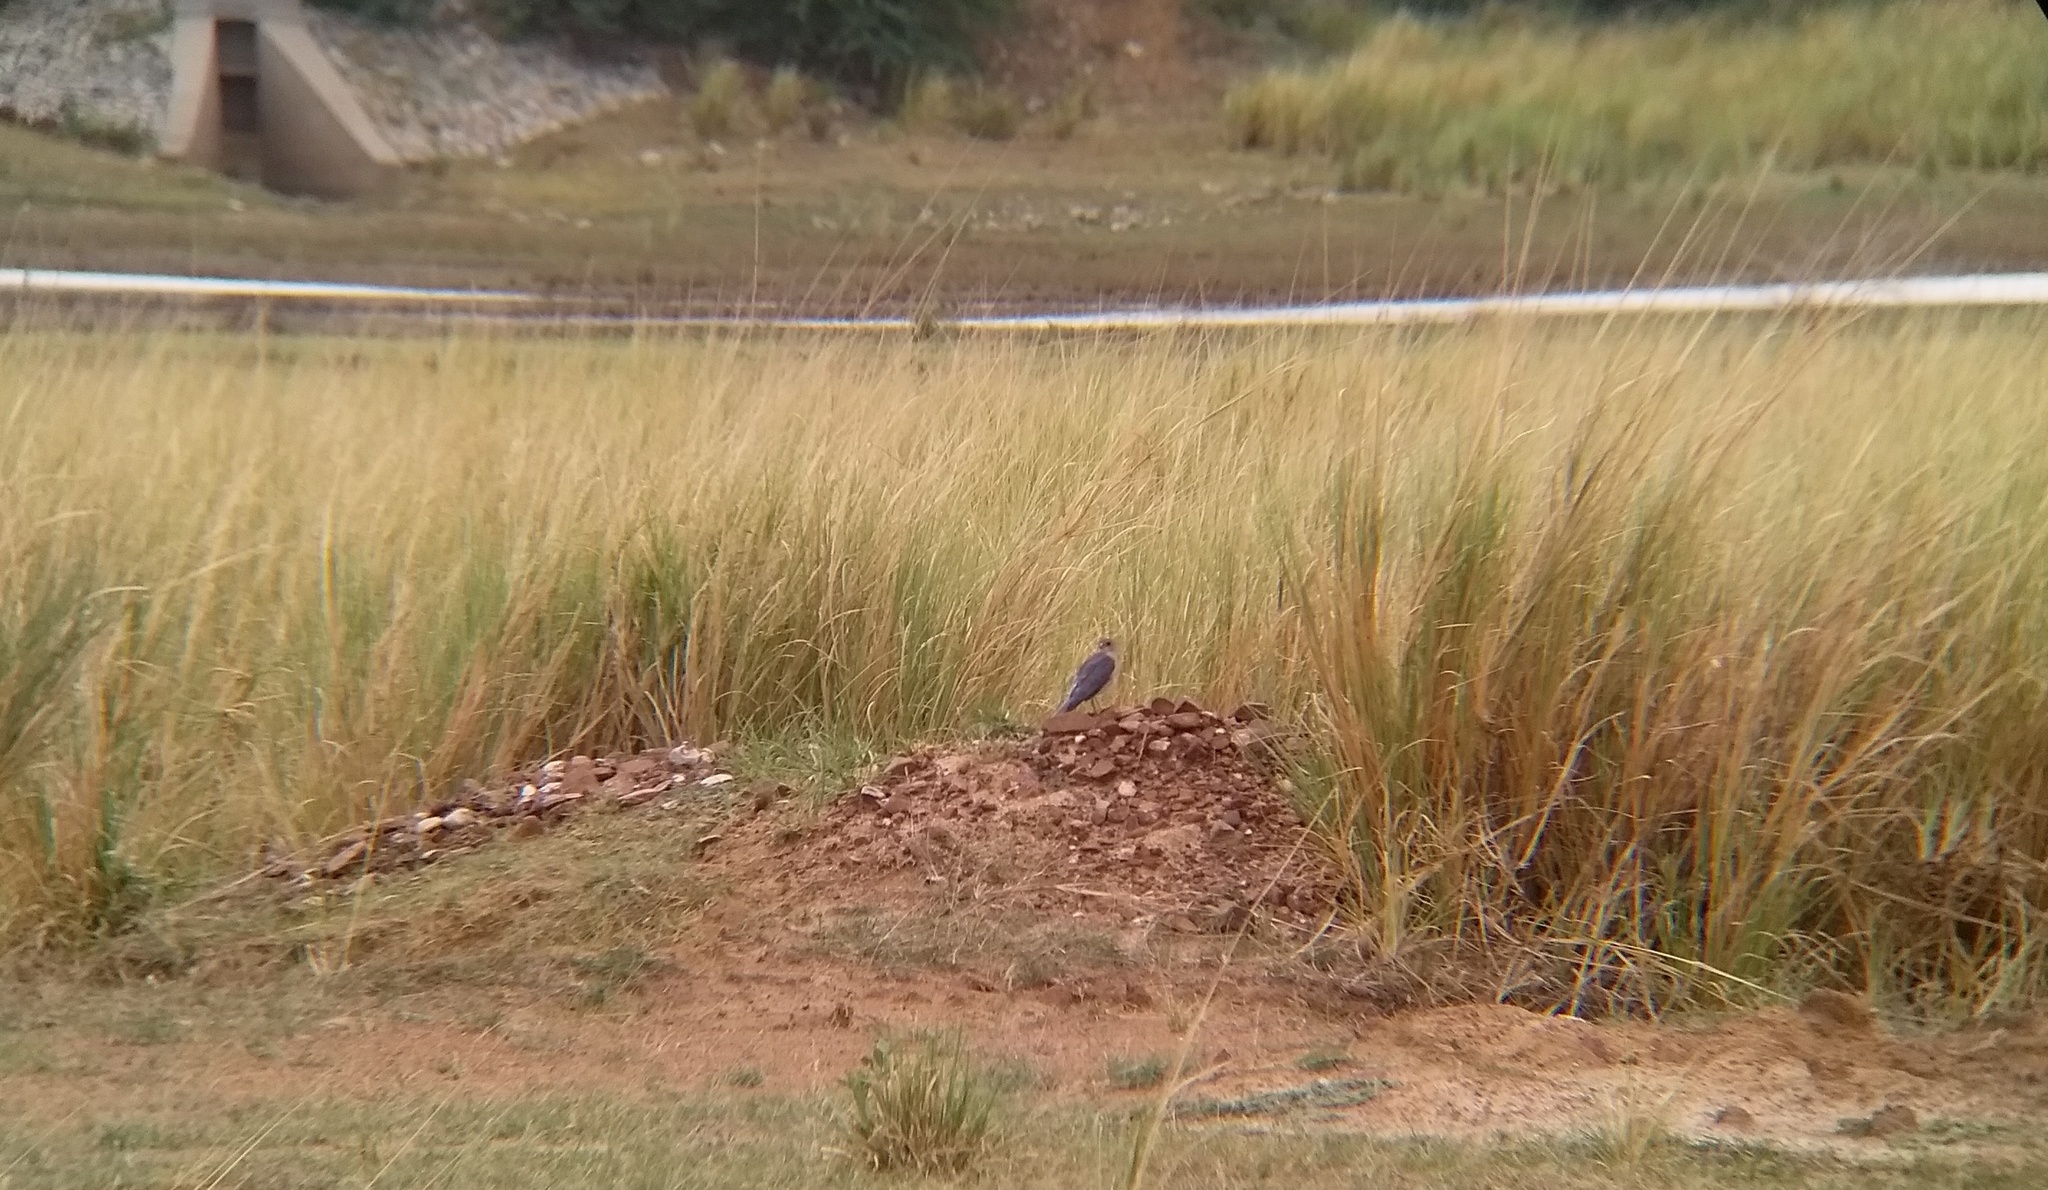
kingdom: Animalia
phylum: Chordata
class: Aves
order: Accipitriformes
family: Accipitridae
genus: Accipiter
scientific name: Accipiter badius
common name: Shikra
